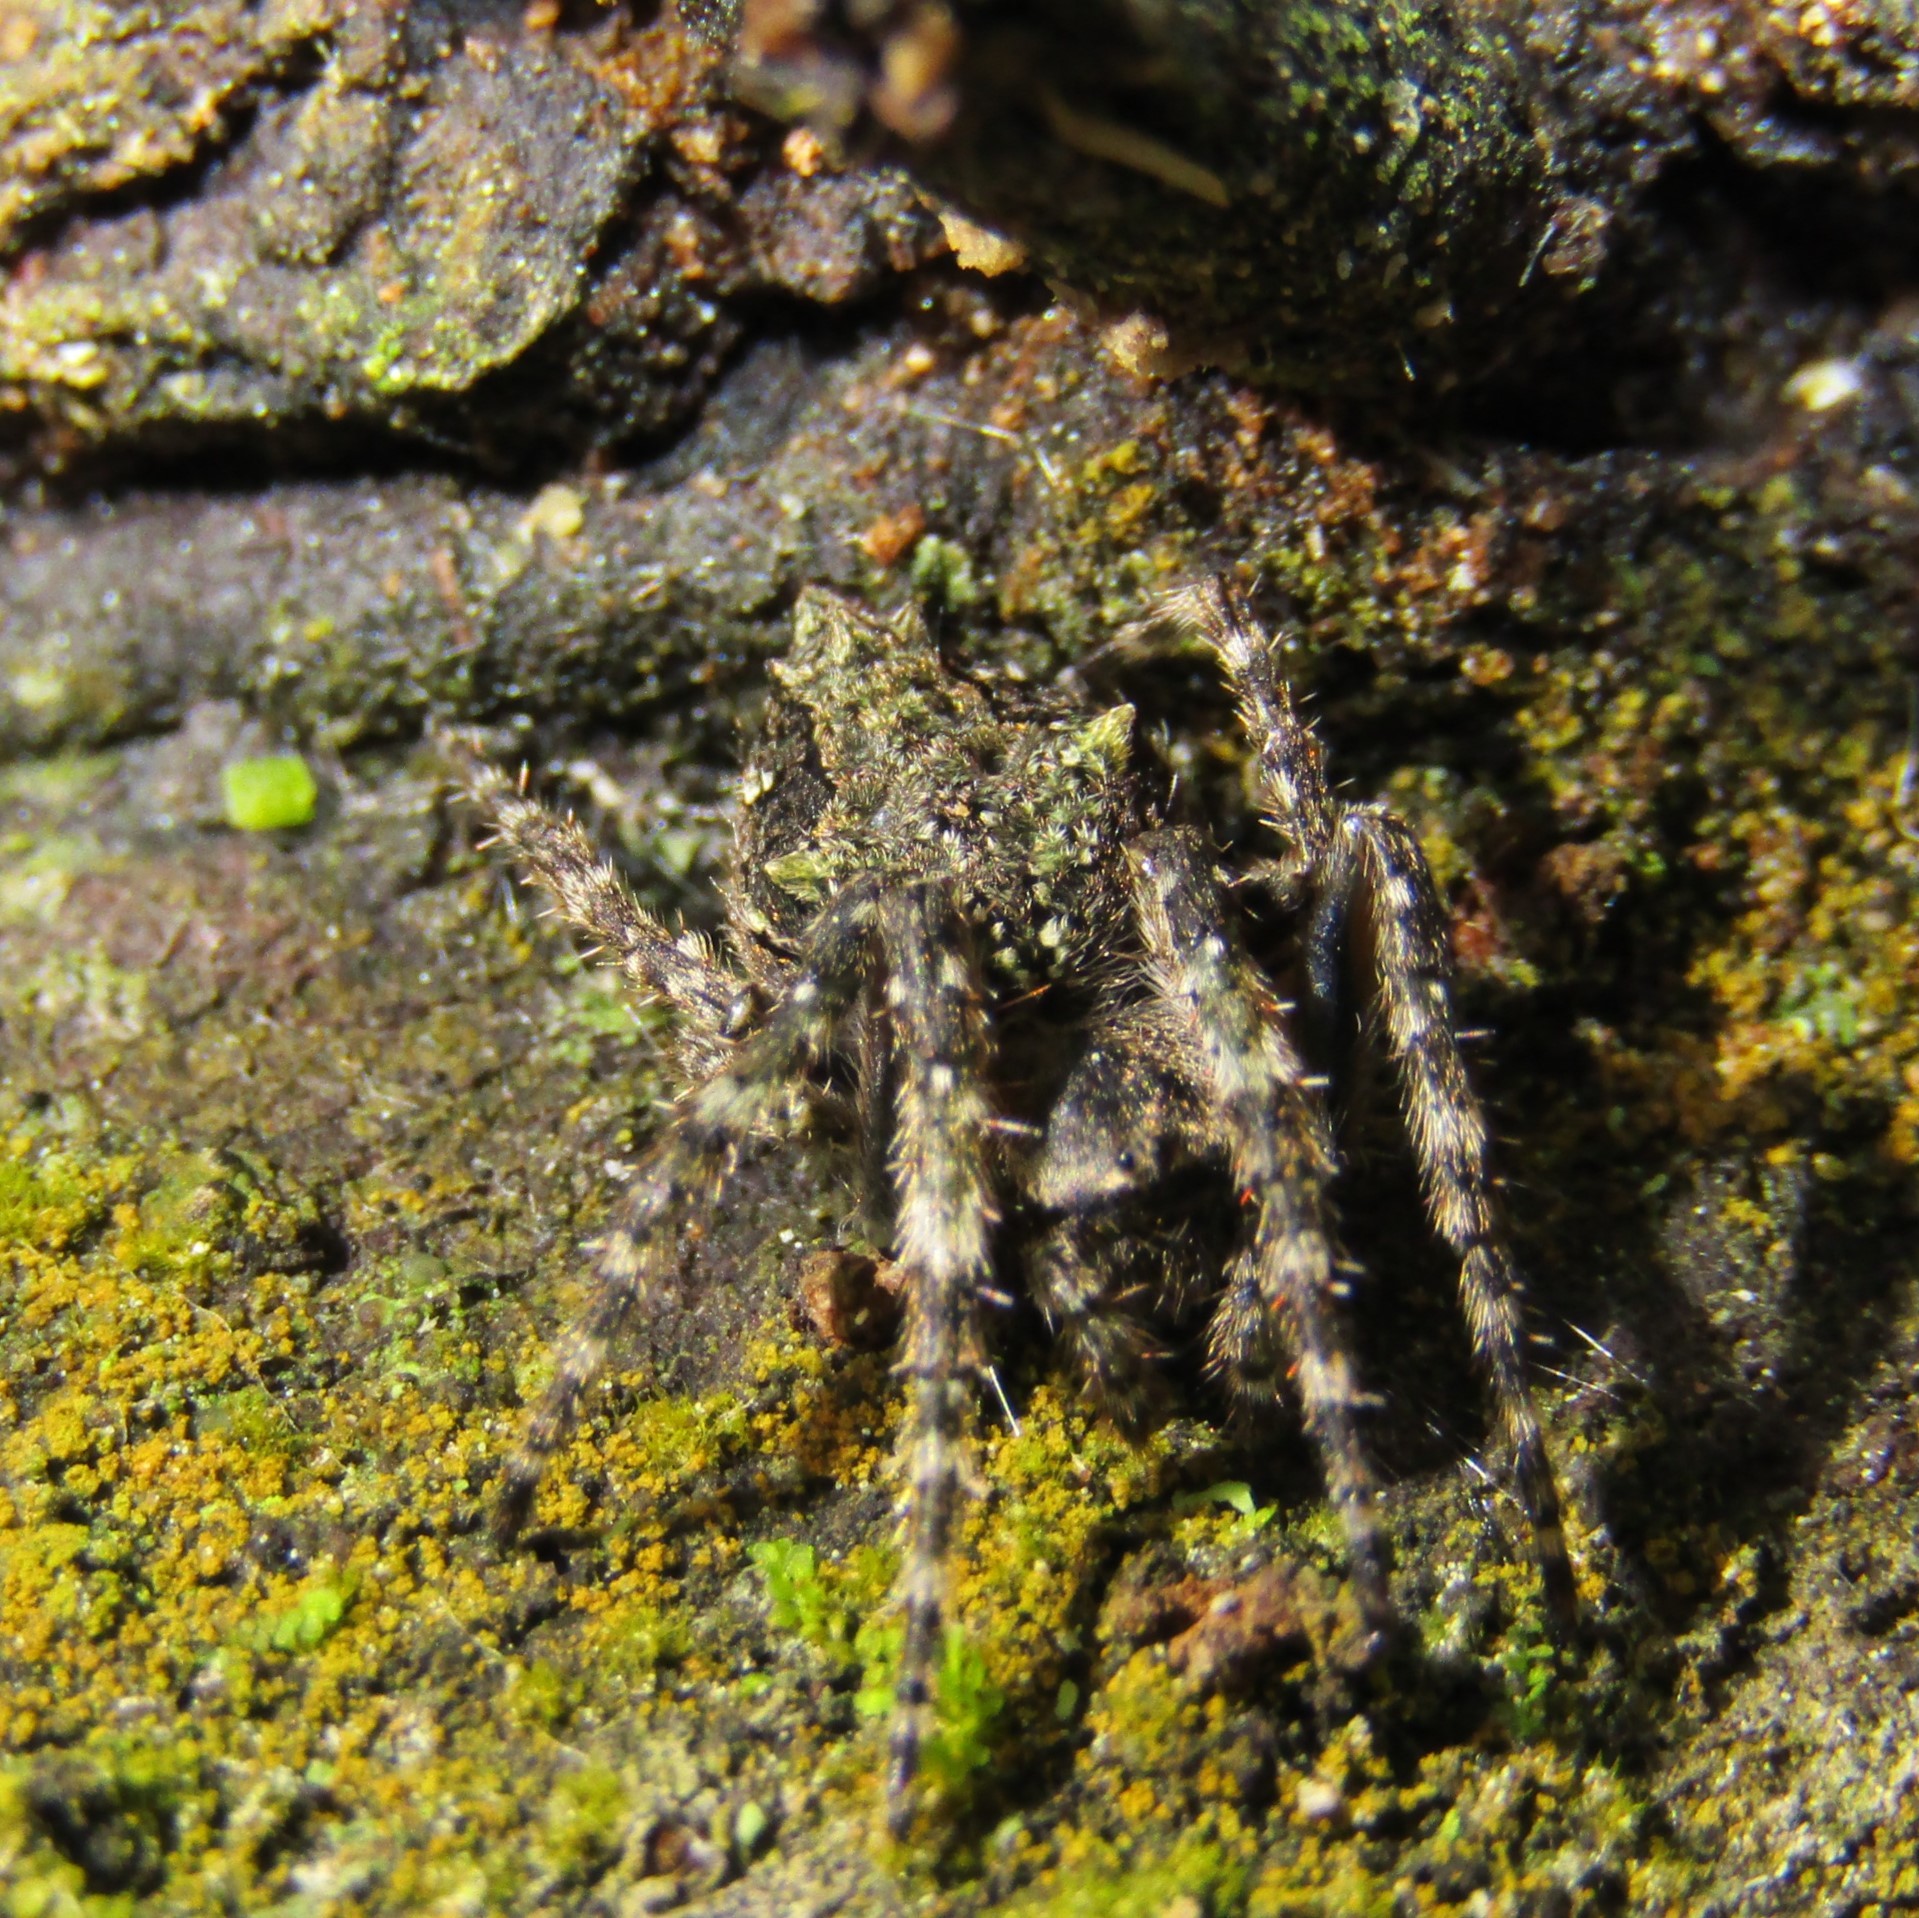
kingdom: Animalia
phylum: Arthropoda
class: Arachnida
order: Araneae
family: Araneidae
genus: Eriophora
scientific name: Eriophora pustulosa
